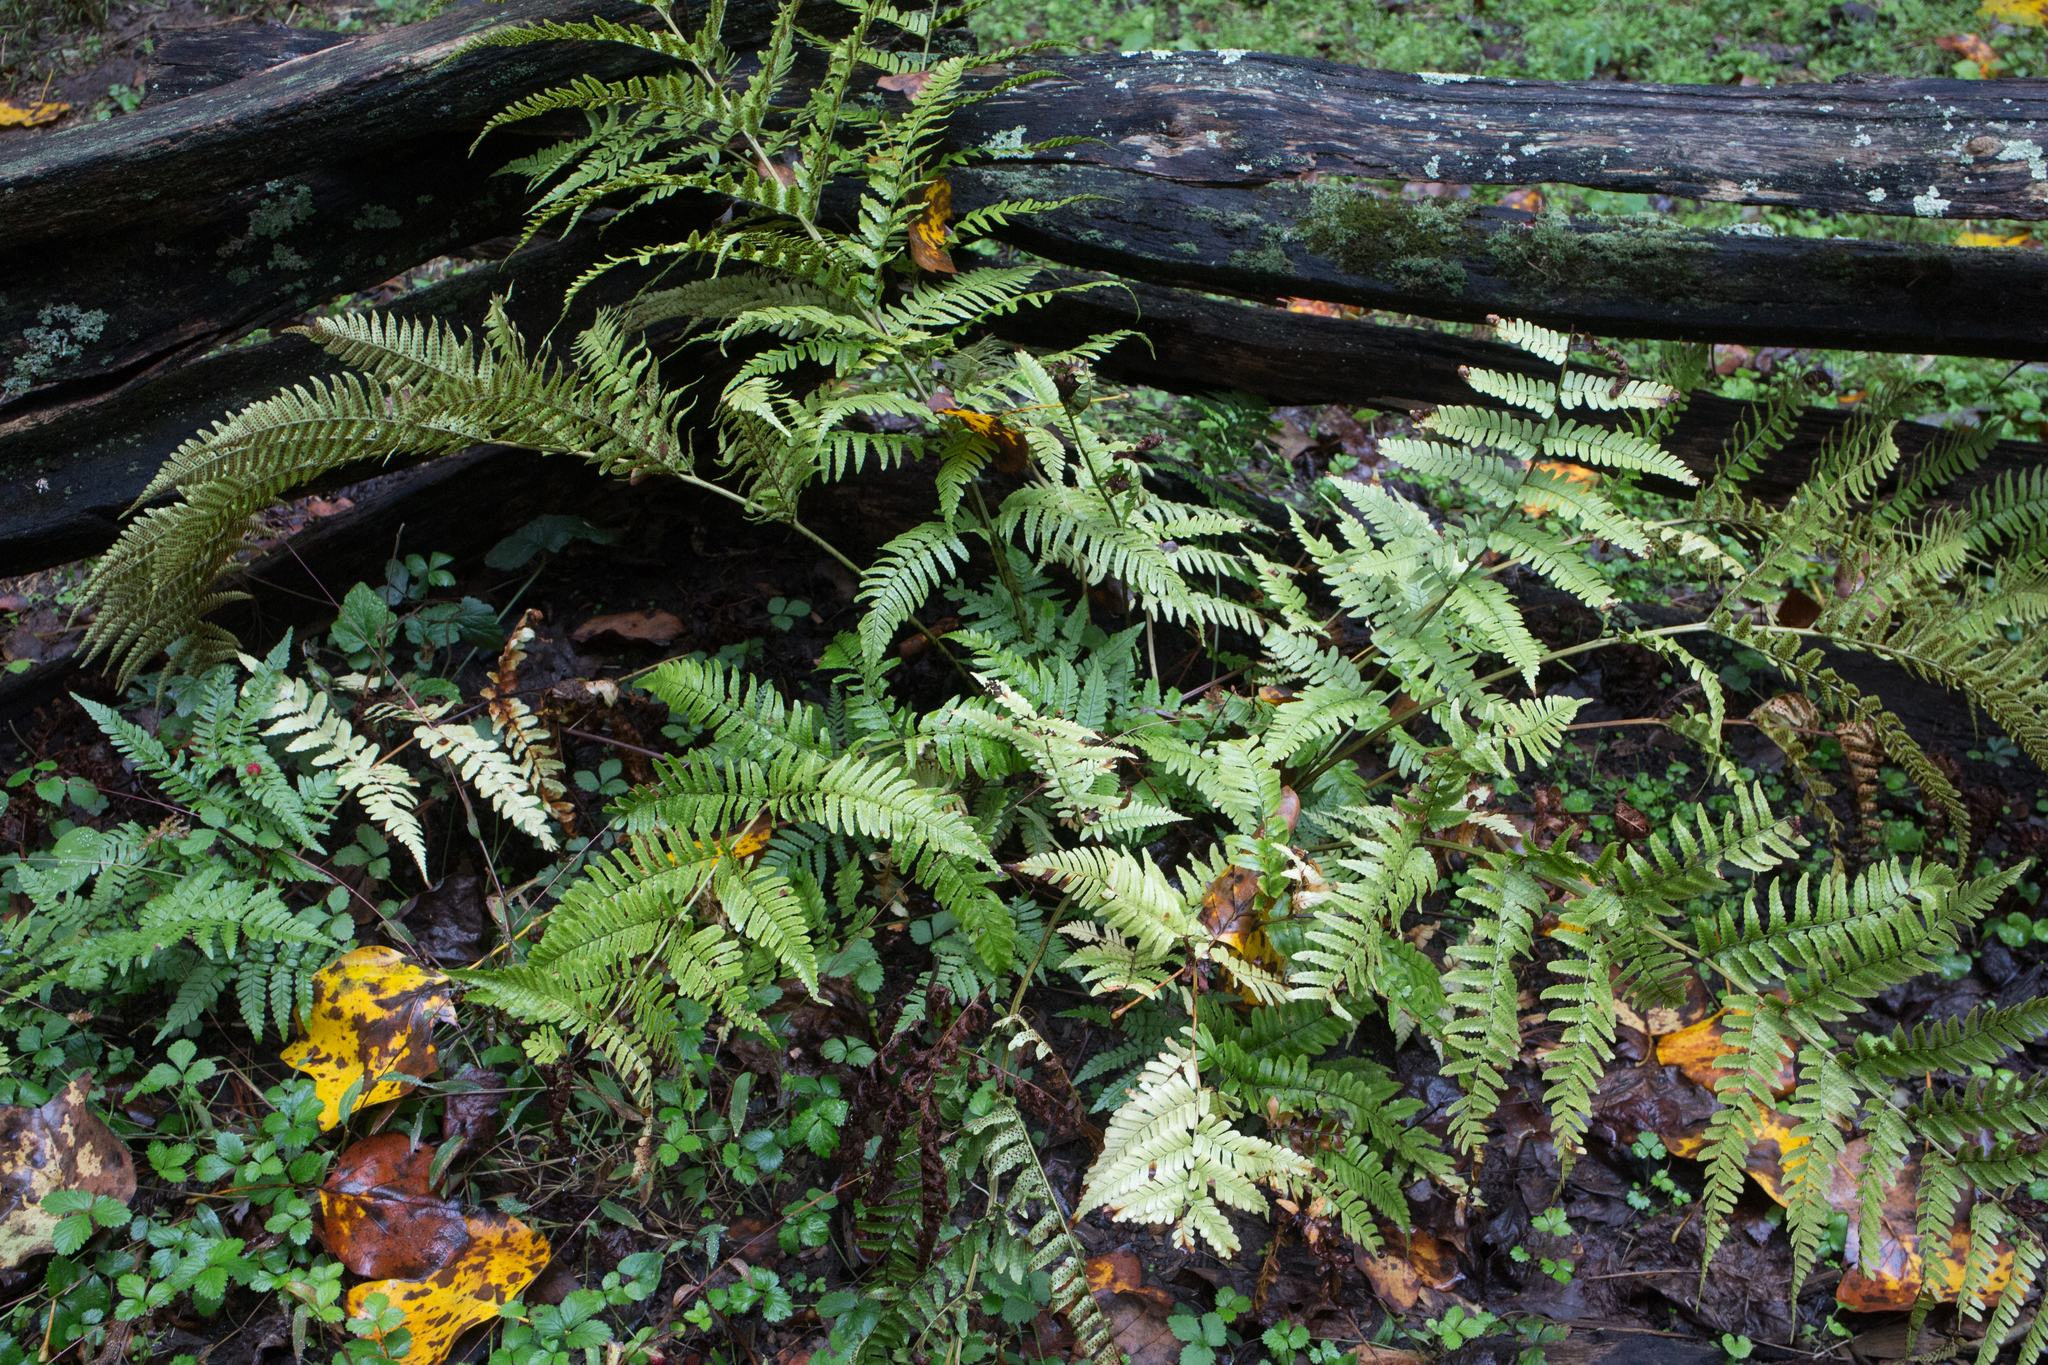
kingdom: Plantae
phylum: Tracheophyta
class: Polypodiopsida
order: Polypodiales
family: Dryopteridaceae
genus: Dryopteris
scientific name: Dryopteris erythrosora
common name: Autumn fern
